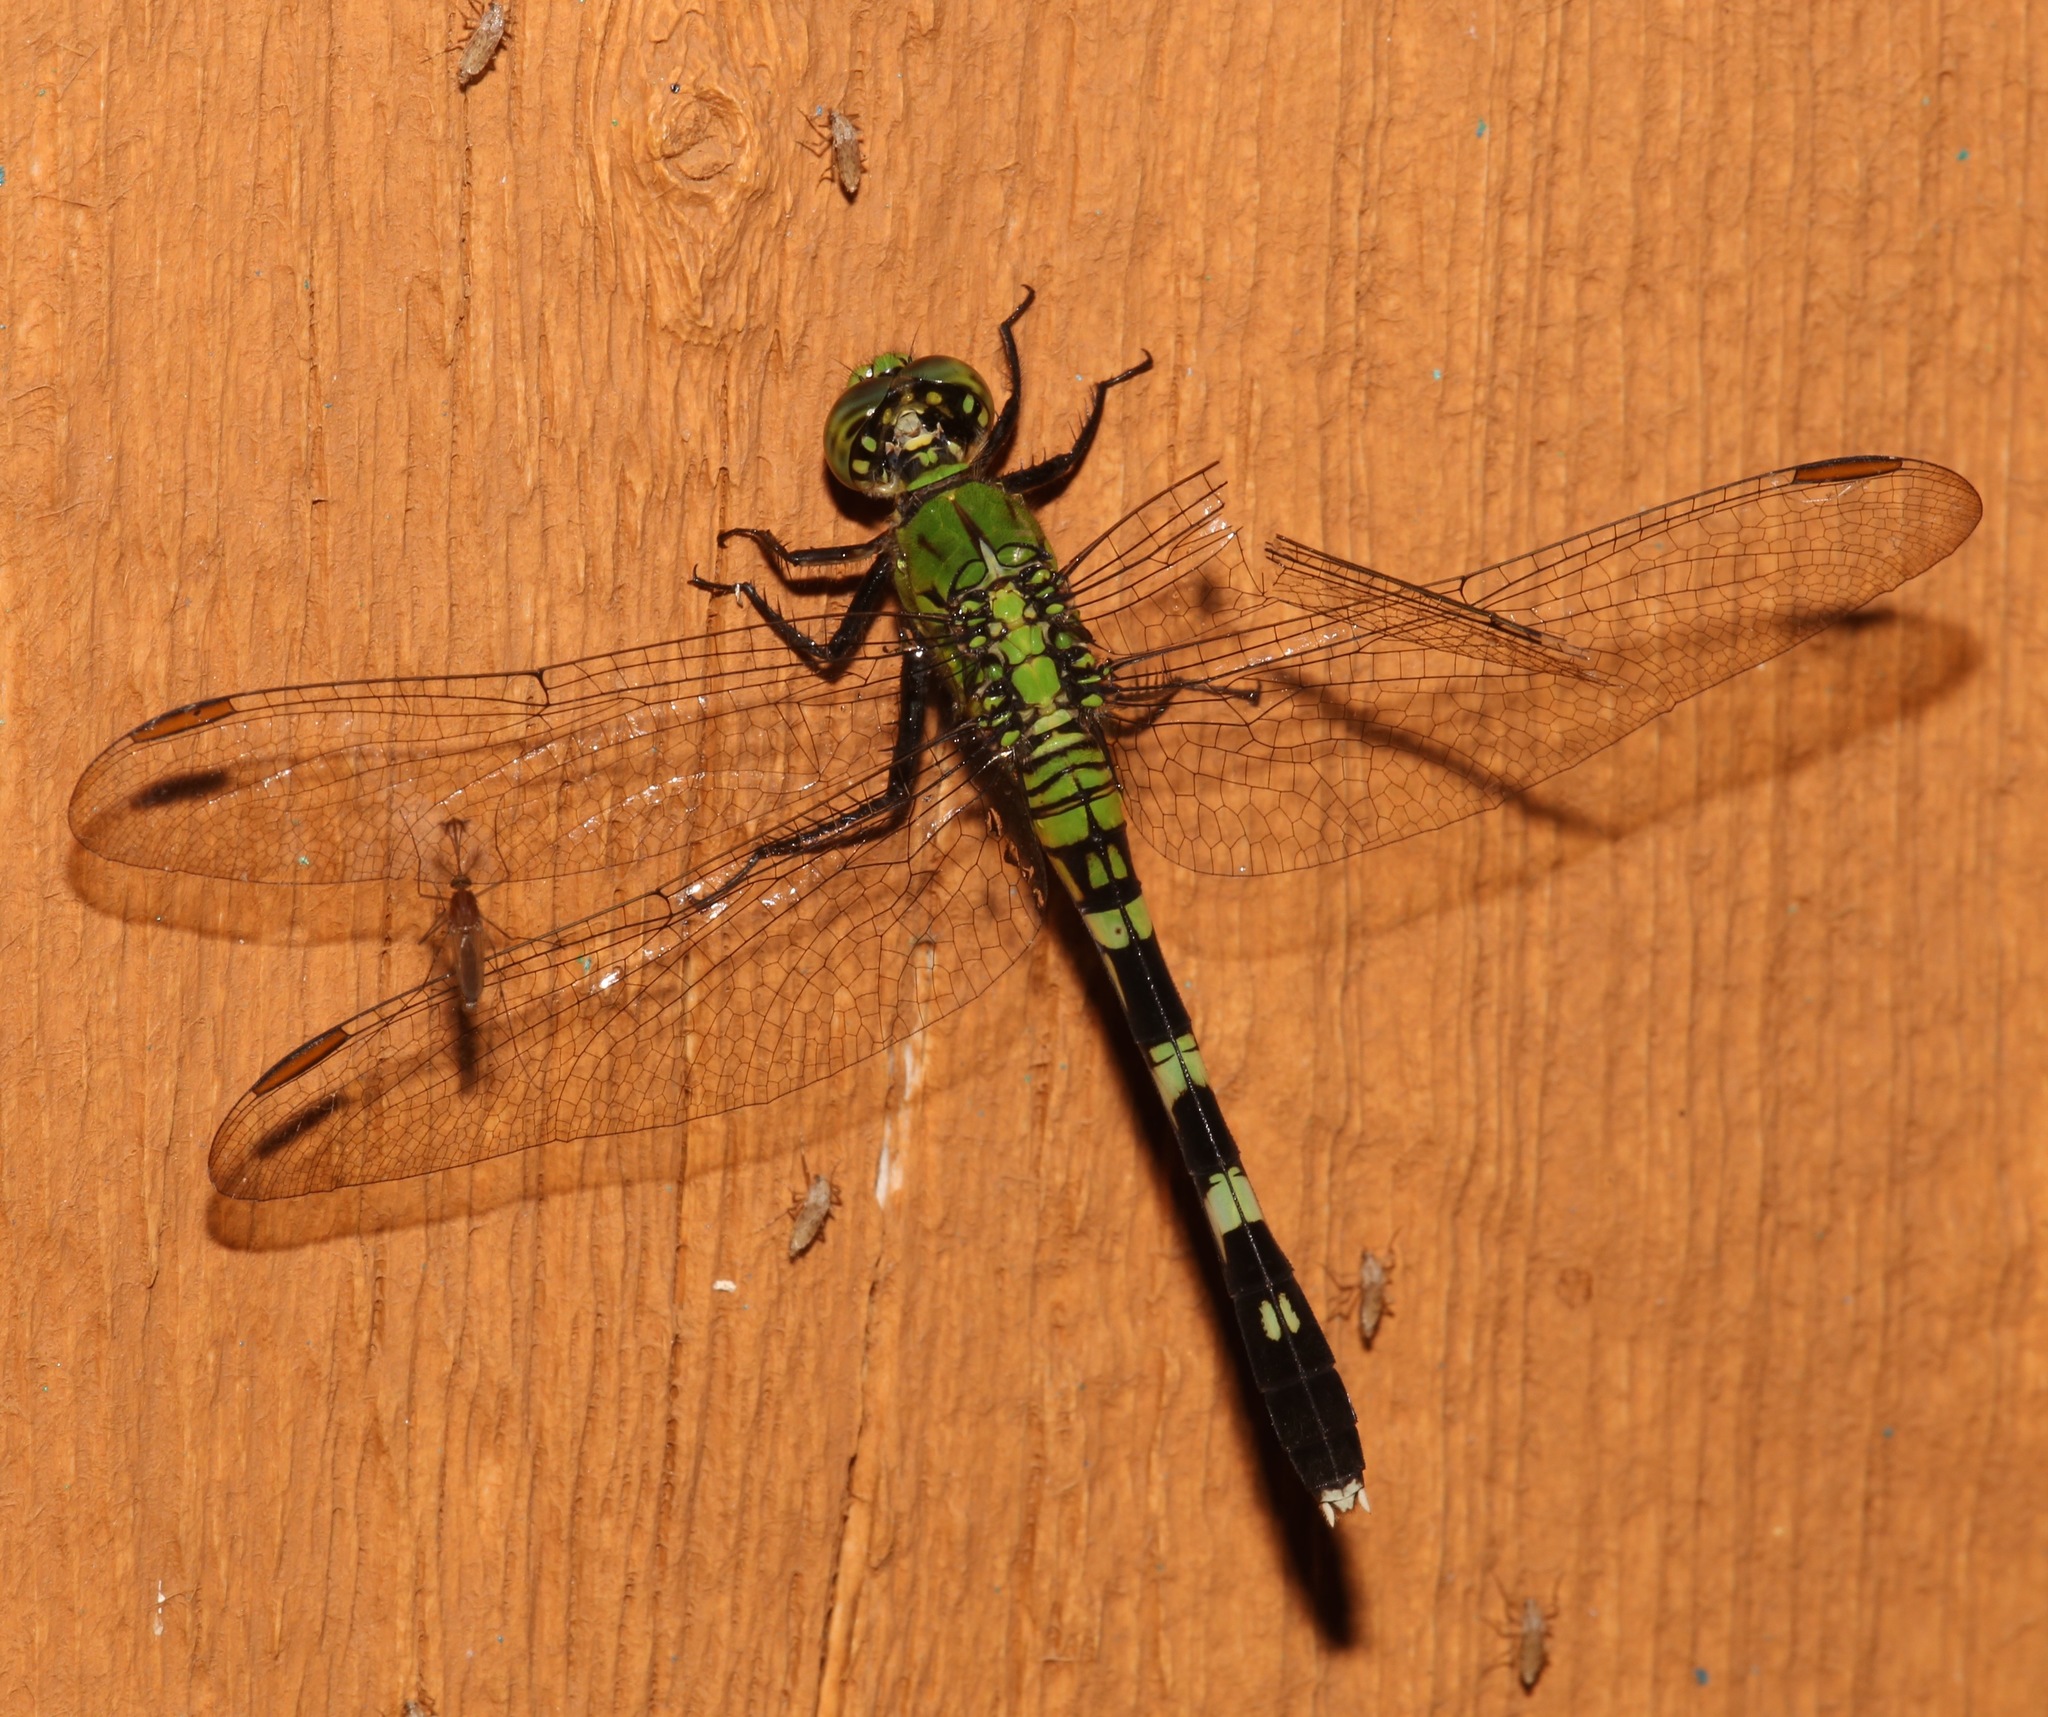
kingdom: Animalia
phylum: Arthropoda
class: Insecta
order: Odonata
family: Libellulidae
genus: Erythemis
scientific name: Erythemis simplicicollis
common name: Eastern pondhawk
